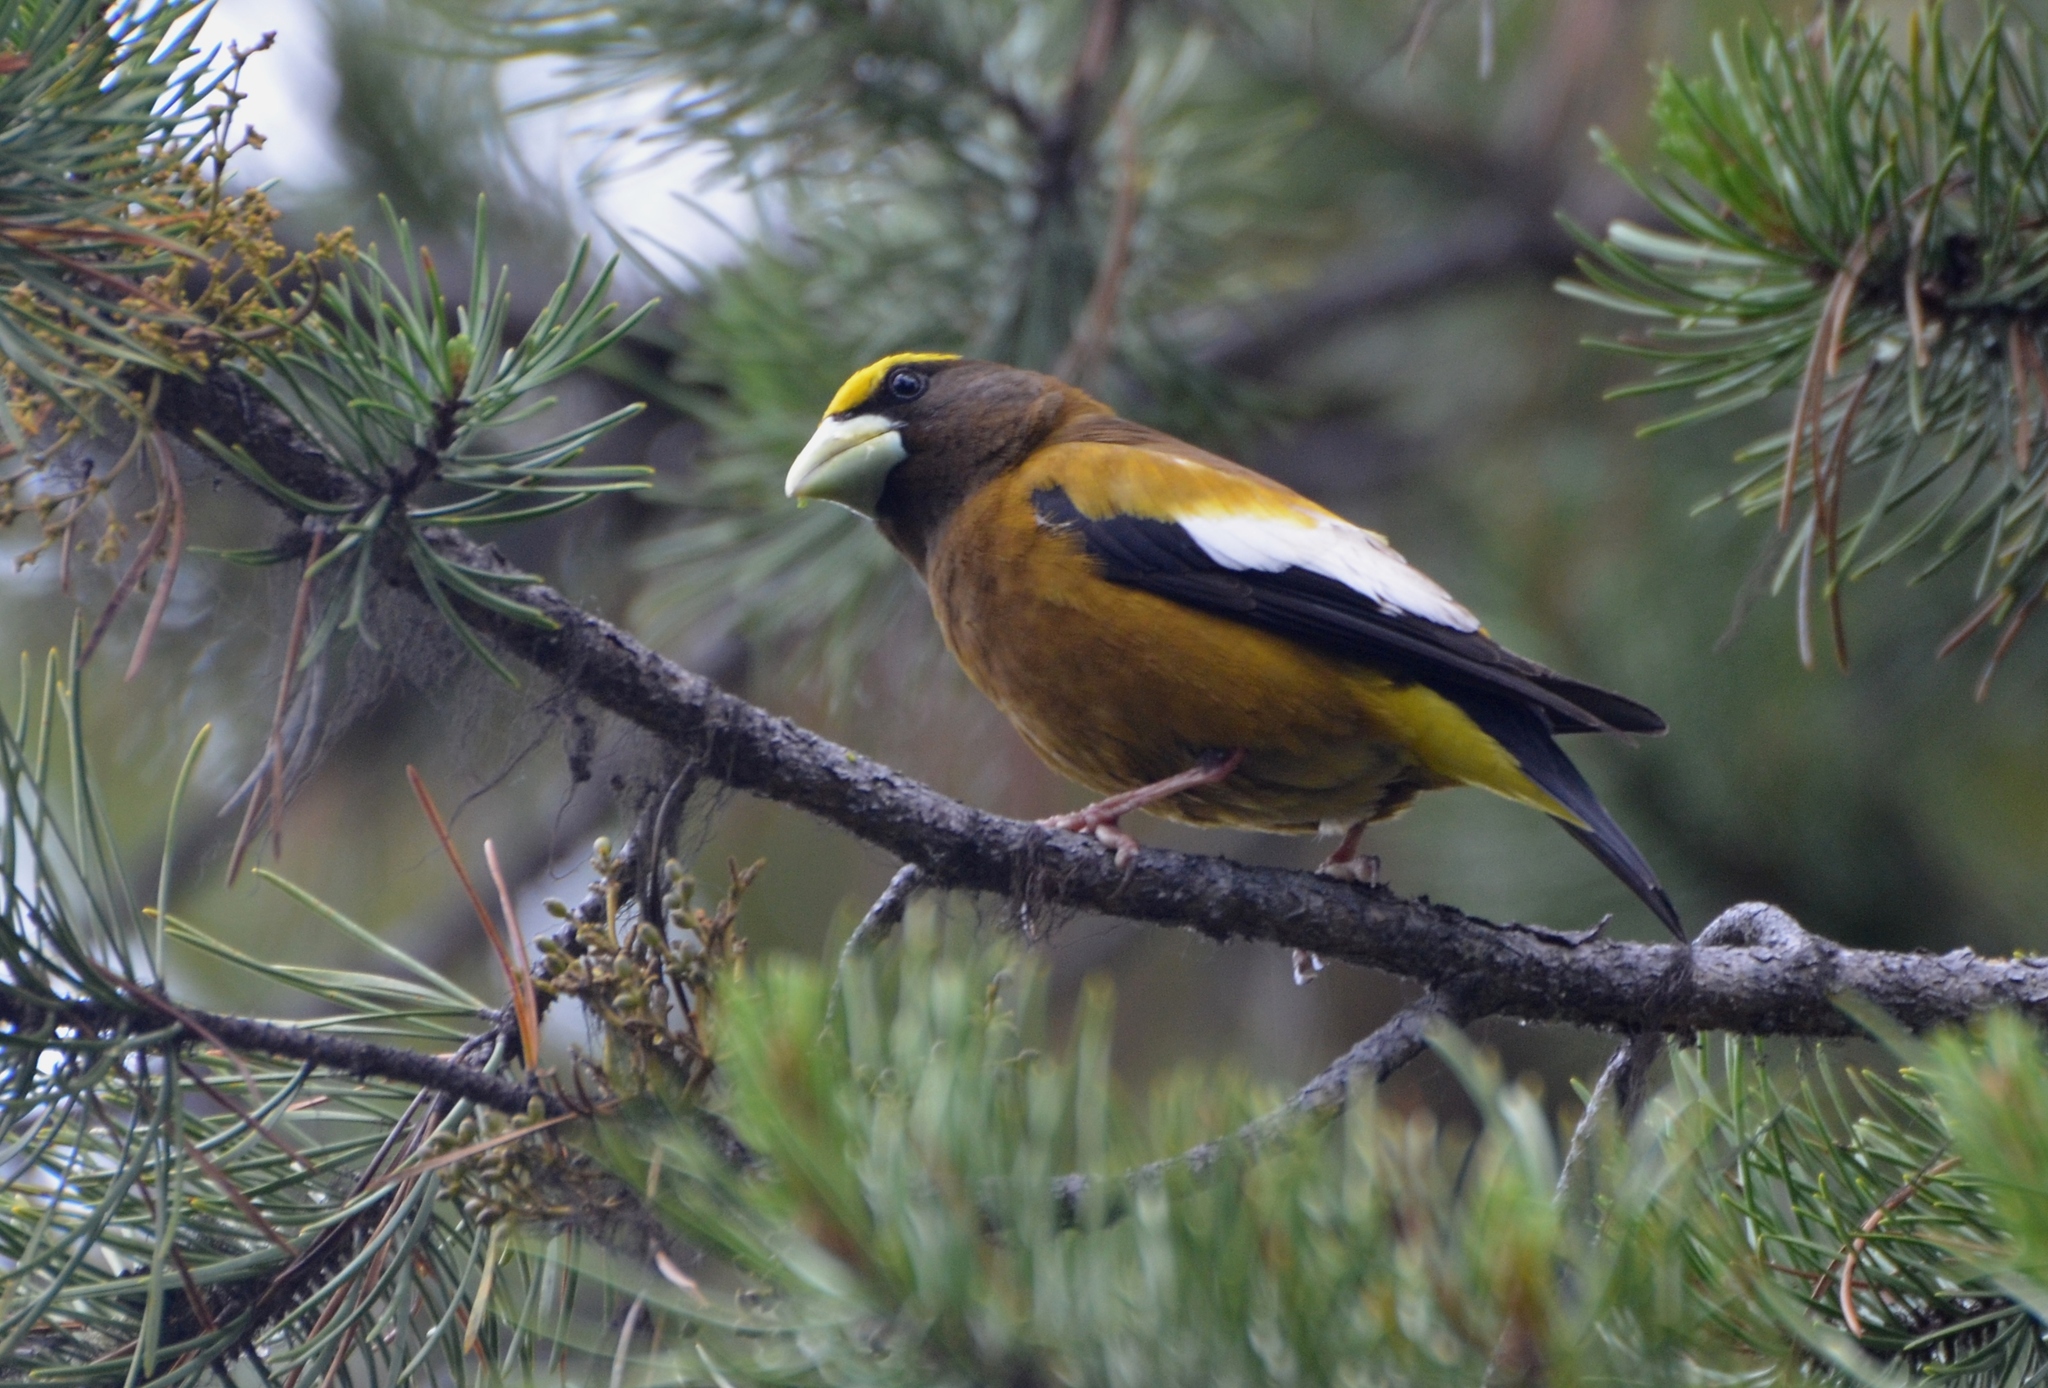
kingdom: Animalia
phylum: Chordata
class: Aves
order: Passeriformes
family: Fringillidae
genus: Hesperiphona
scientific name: Hesperiphona vespertina
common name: Evening grosbeak
